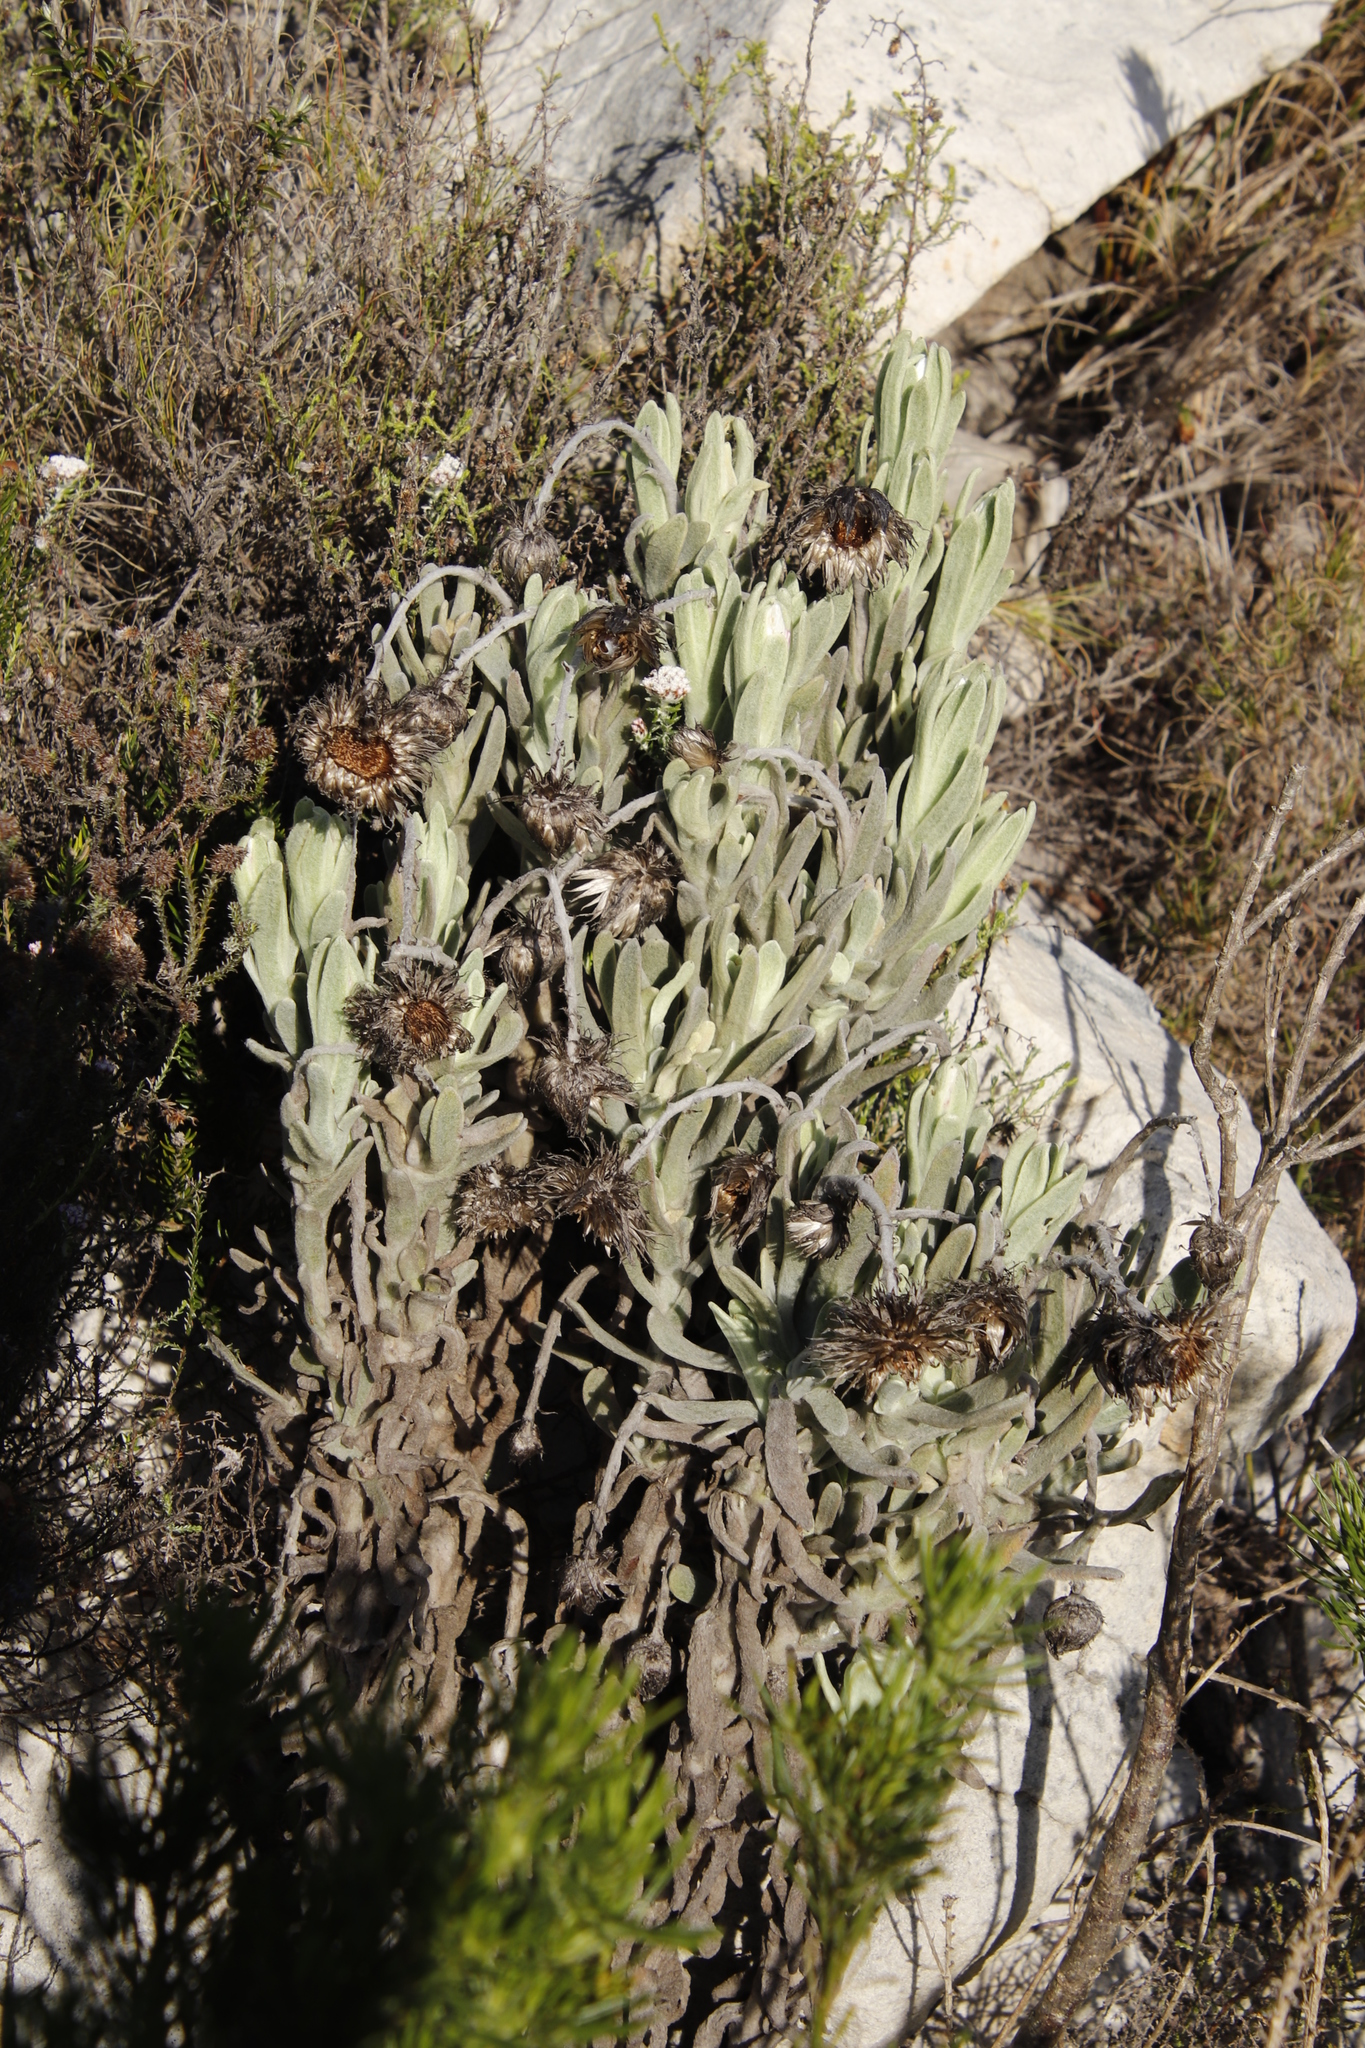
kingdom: Plantae
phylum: Tracheophyta
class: Magnoliopsida
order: Asterales
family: Asteraceae
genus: Syncarpha
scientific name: Syncarpha vestita
